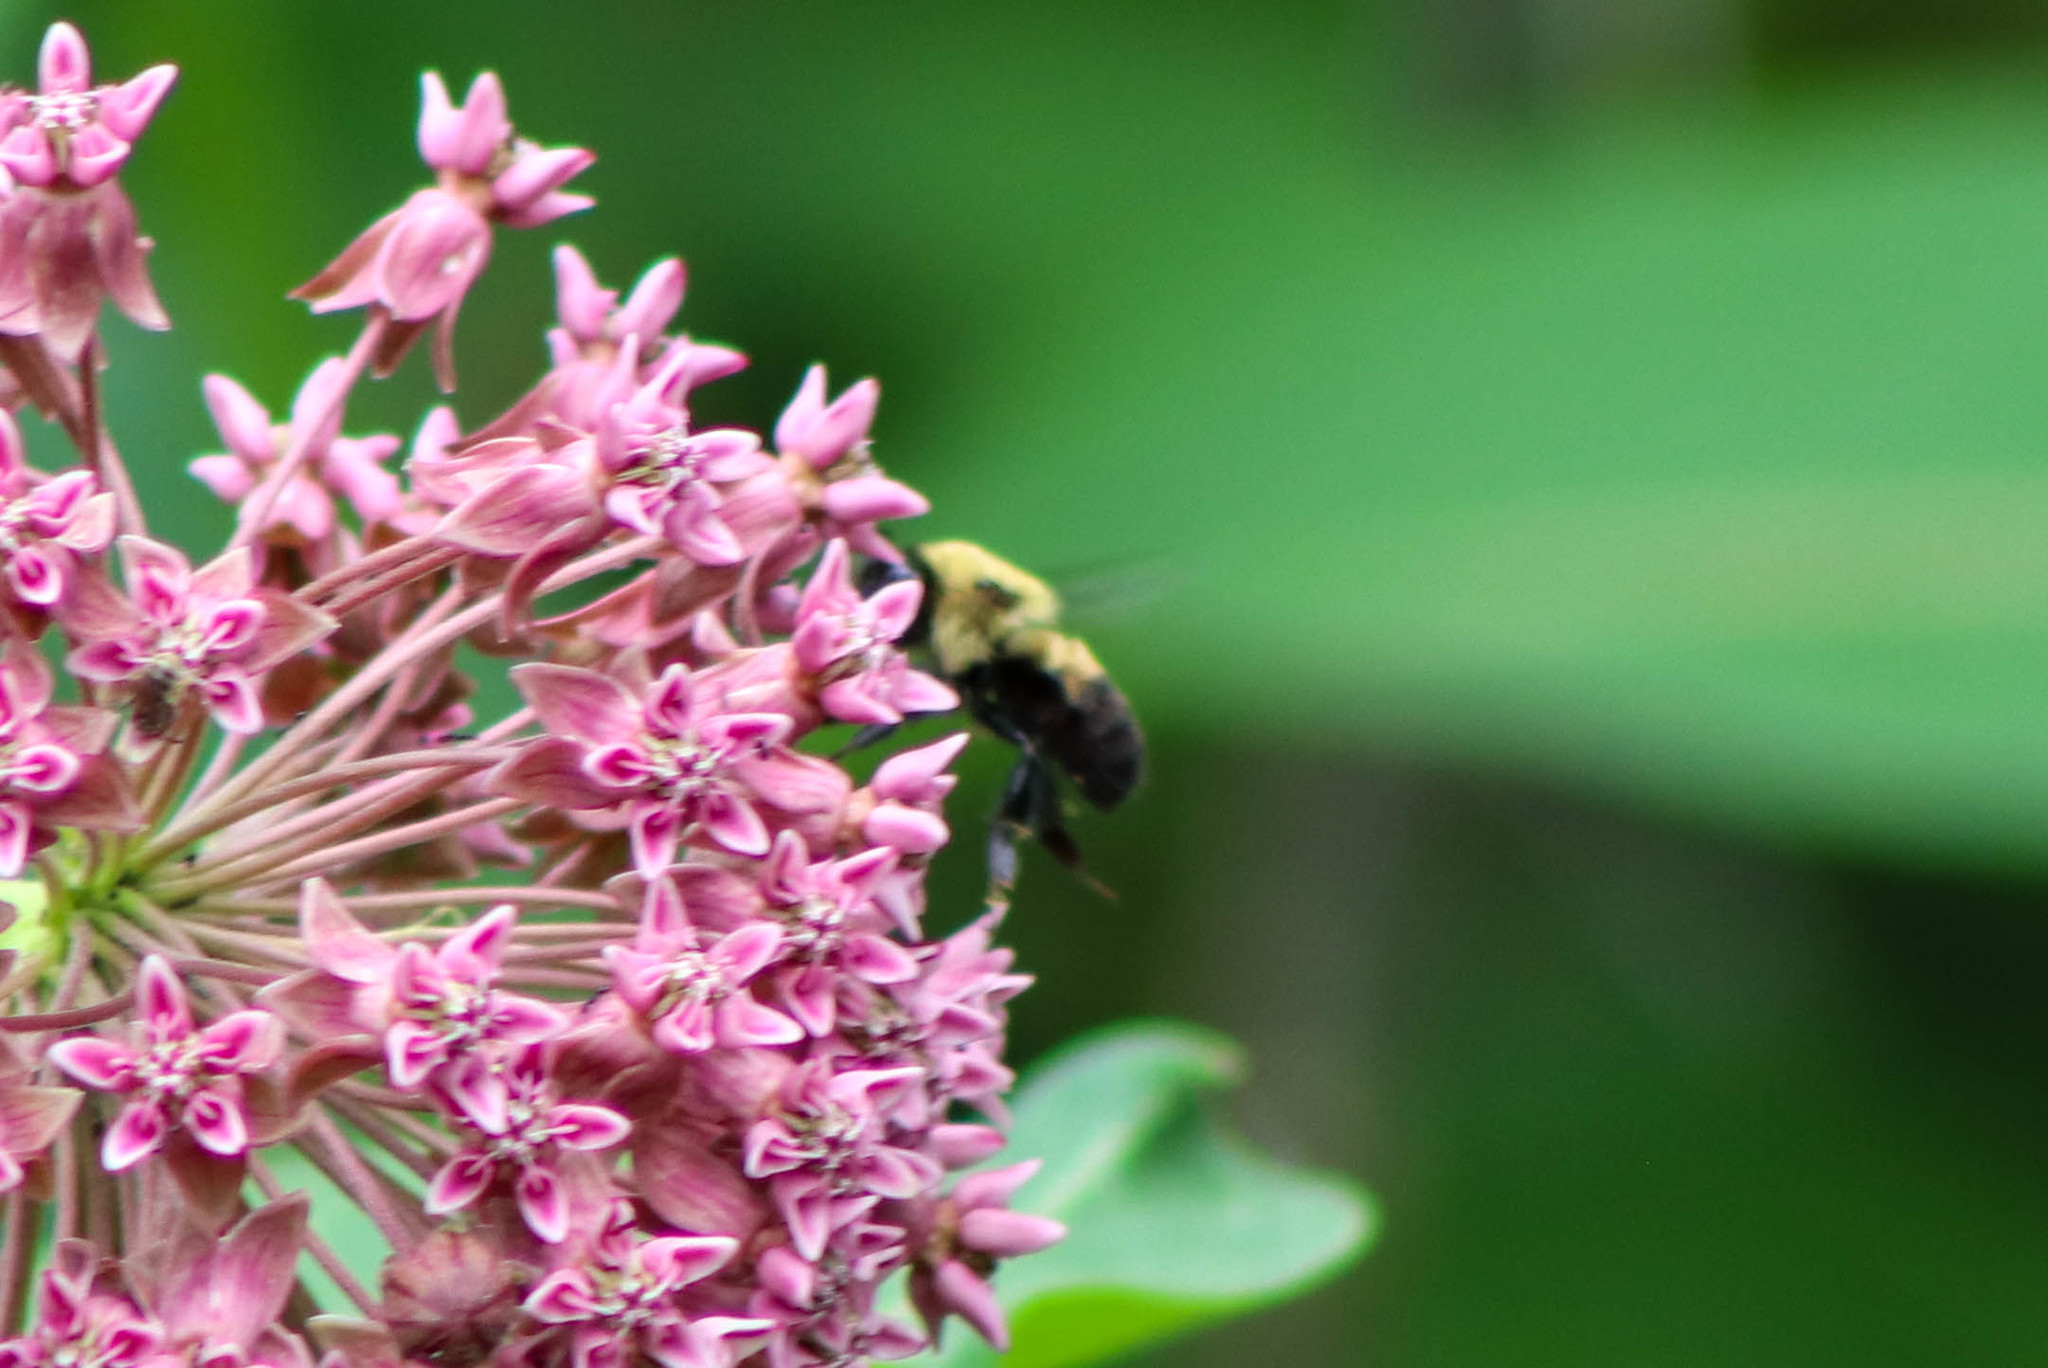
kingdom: Animalia
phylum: Arthropoda
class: Insecta
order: Hymenoptera
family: Apidae
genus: Bombus
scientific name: Bombus griseocollis
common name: Brown-belted bumble bee
